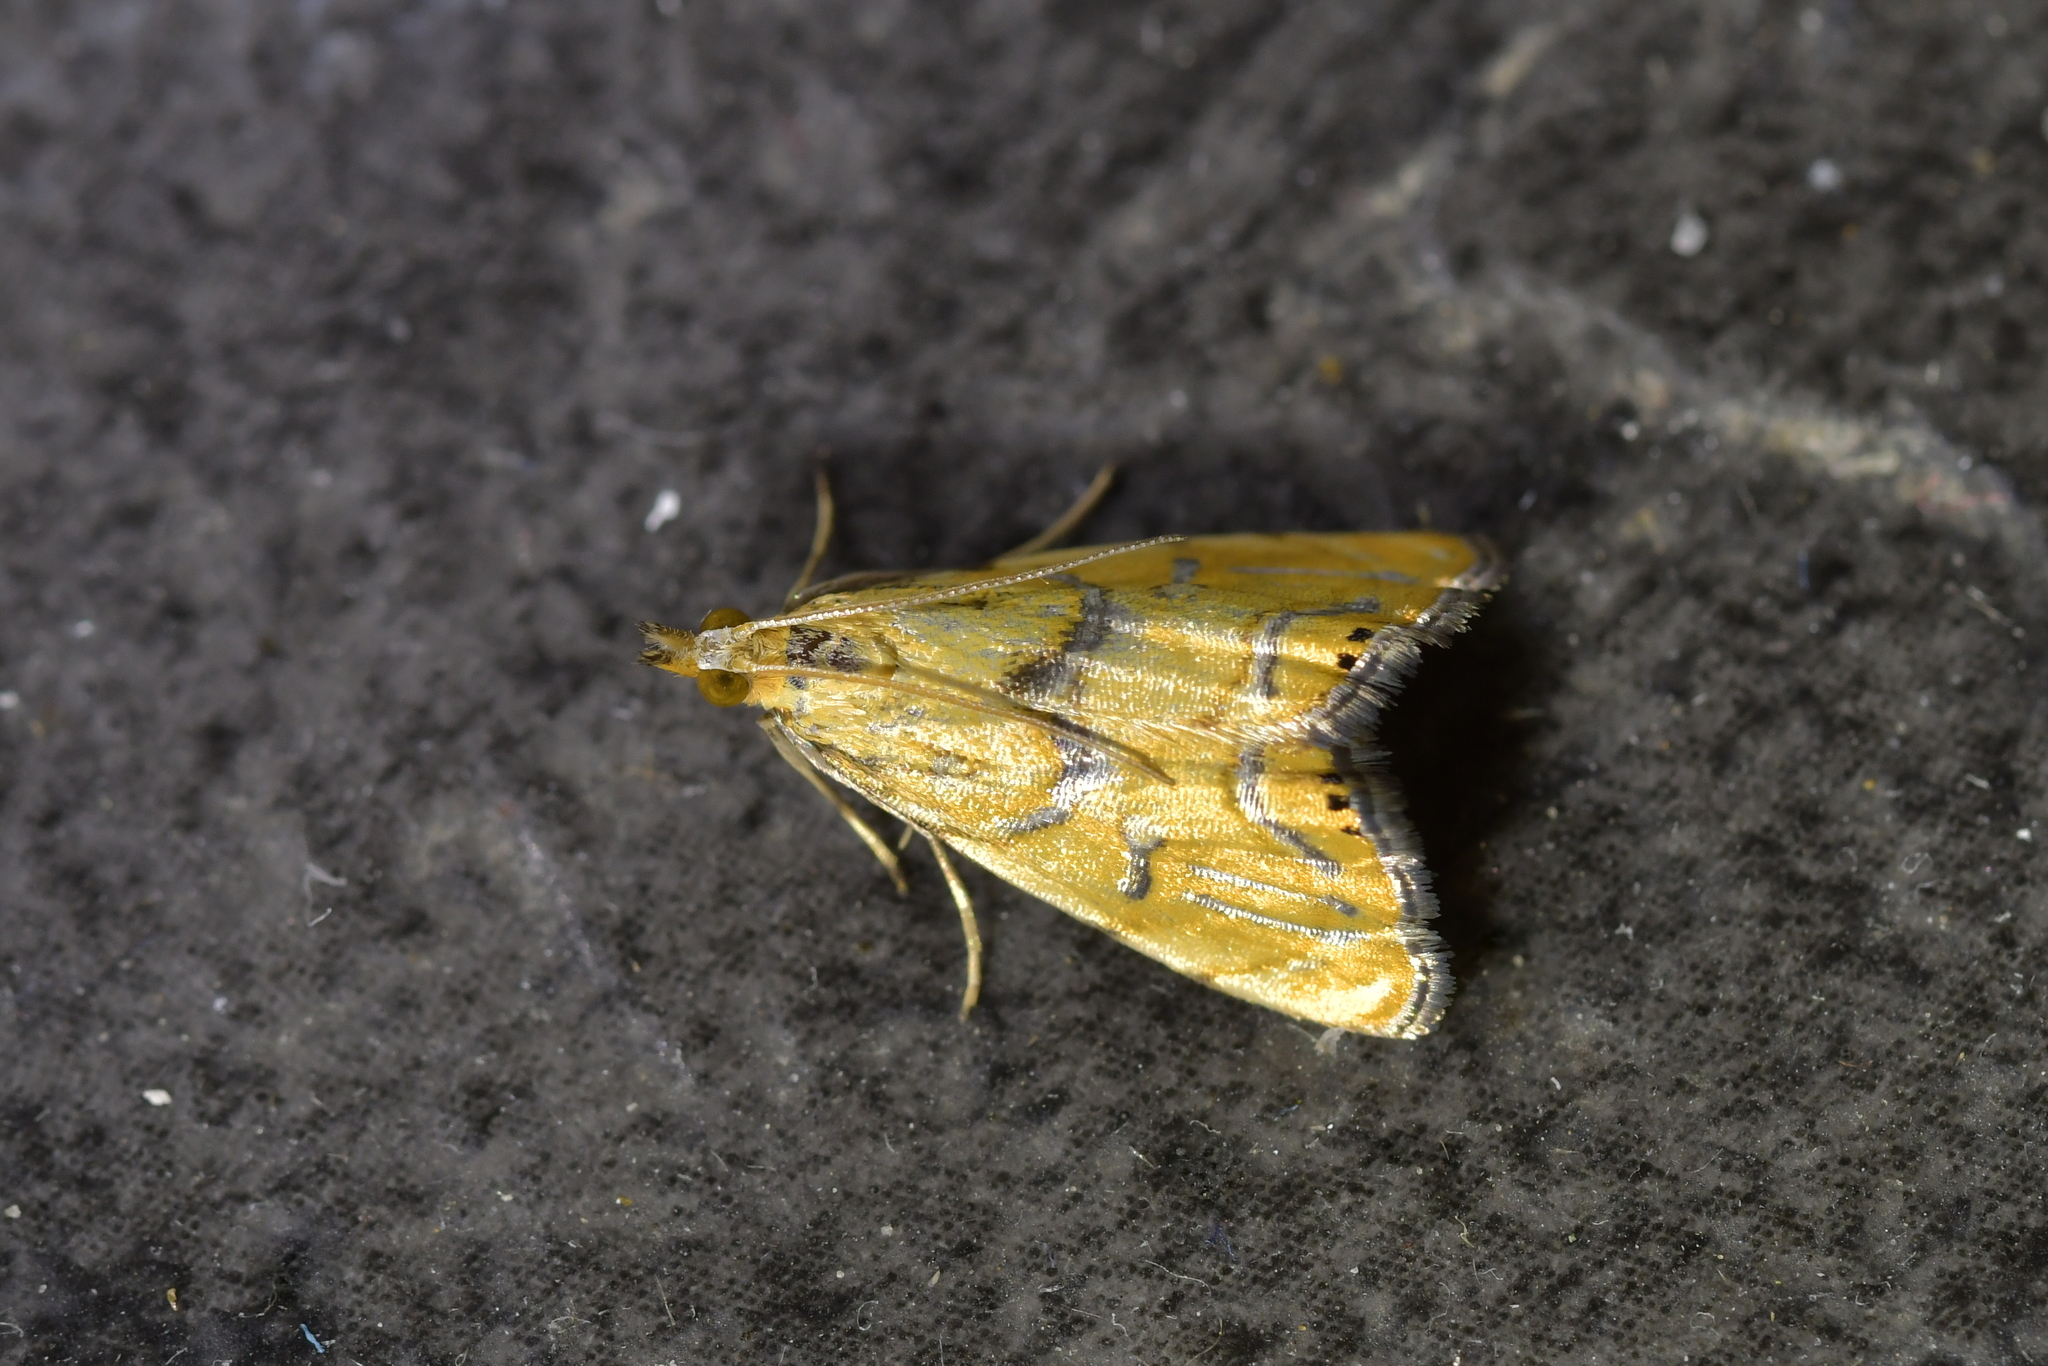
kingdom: Animalia
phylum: Arthropoda
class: Insecta
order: Lepidoptera
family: Crambidae
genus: Glaucocharis
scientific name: Glaucocharis auriscriptella
